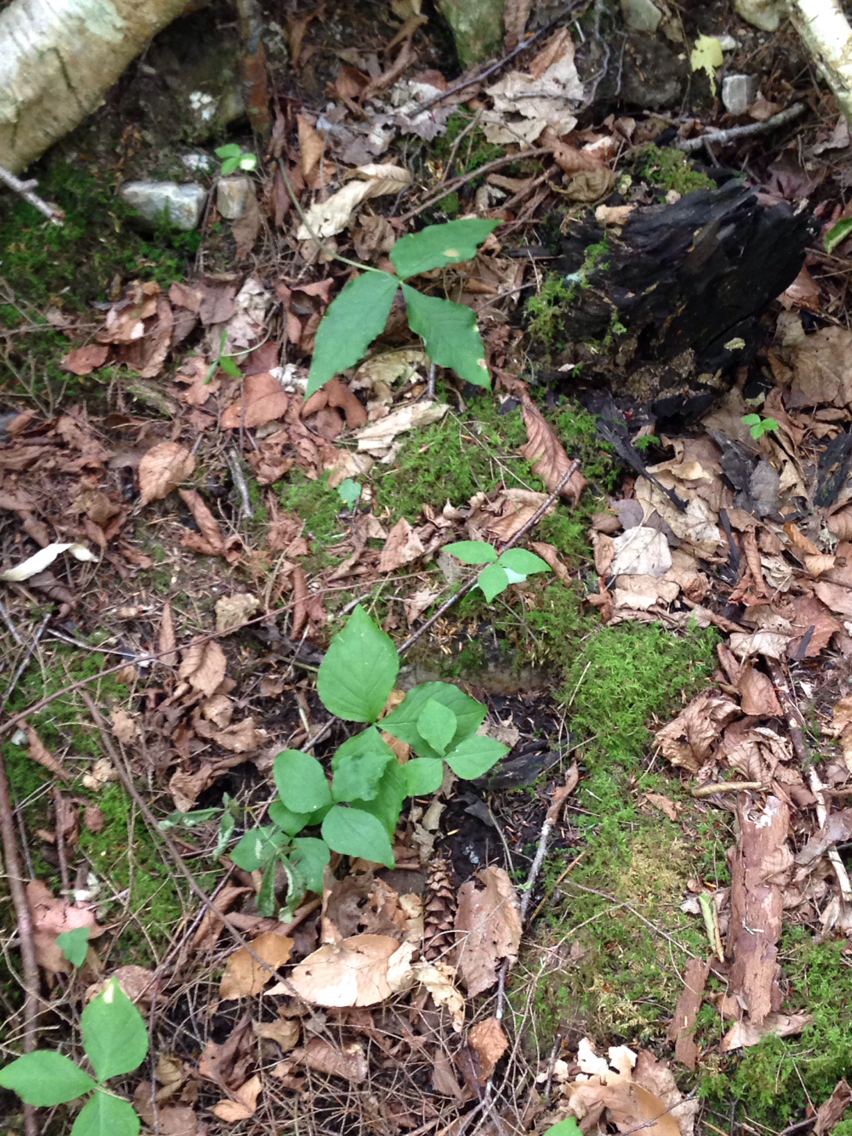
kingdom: Plantae
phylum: Tracheophyta
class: Liliopsida
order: Alismatales
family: Araceae
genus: Arisaema
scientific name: Arisaema triphyllum
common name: Jack-in-the-pulpit
